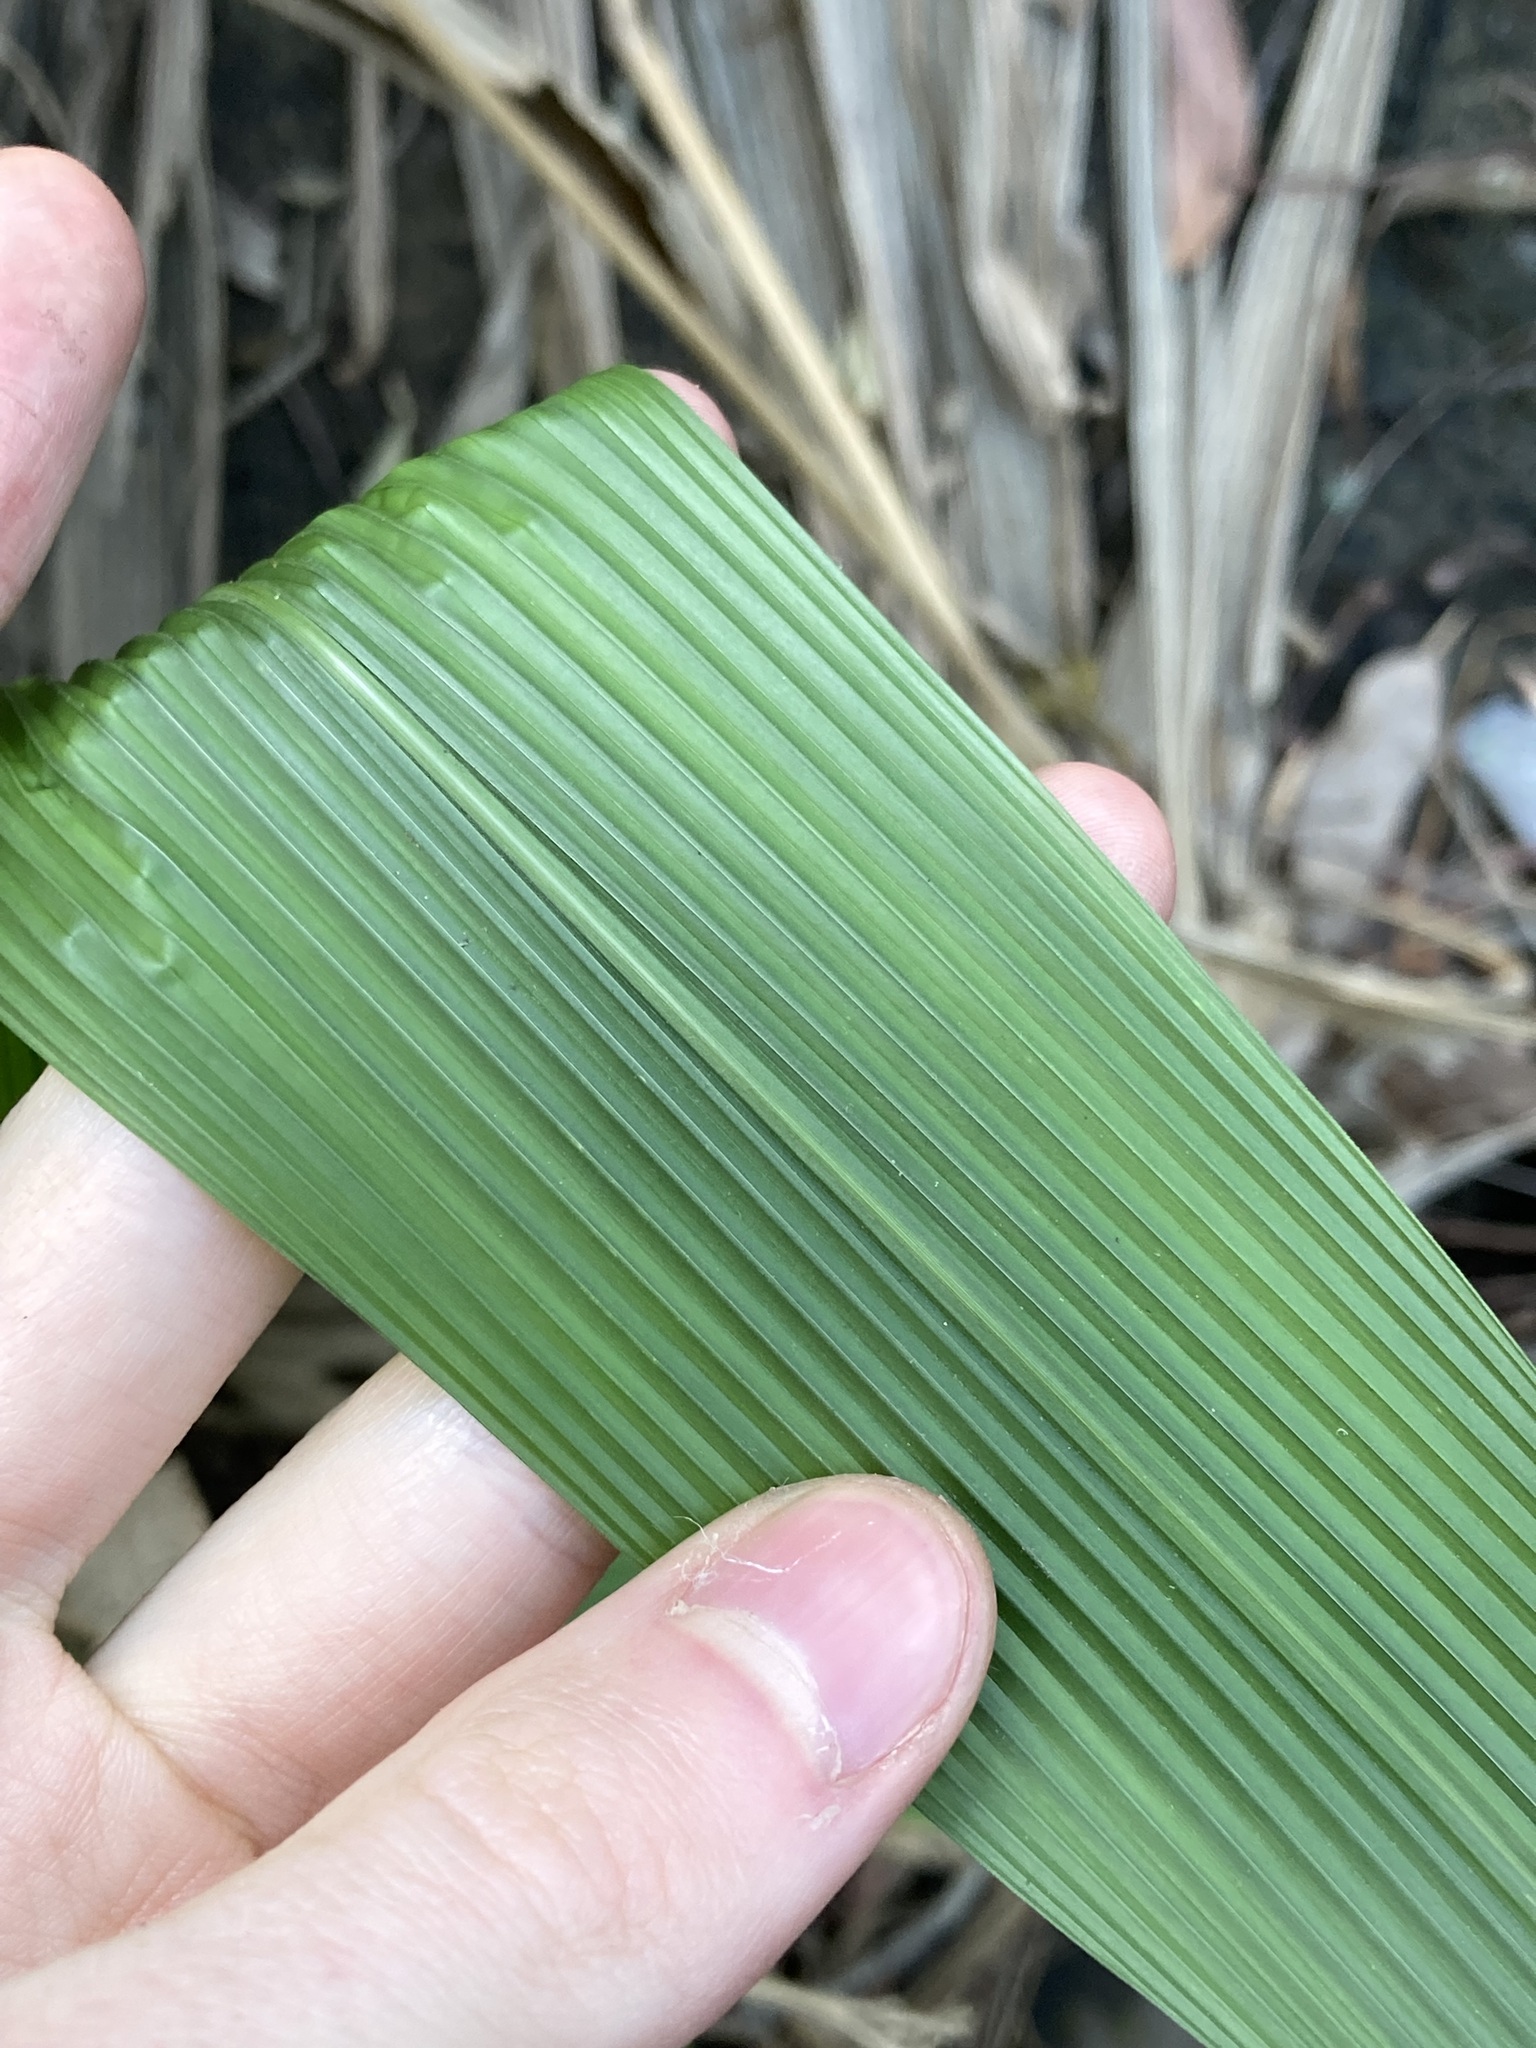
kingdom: Plantae
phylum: Tracheophyta
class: Liliopsida
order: Poales
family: Poaceae
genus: Setaria
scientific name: Setaria palmifolia
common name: Broadleaved bristlegrass
